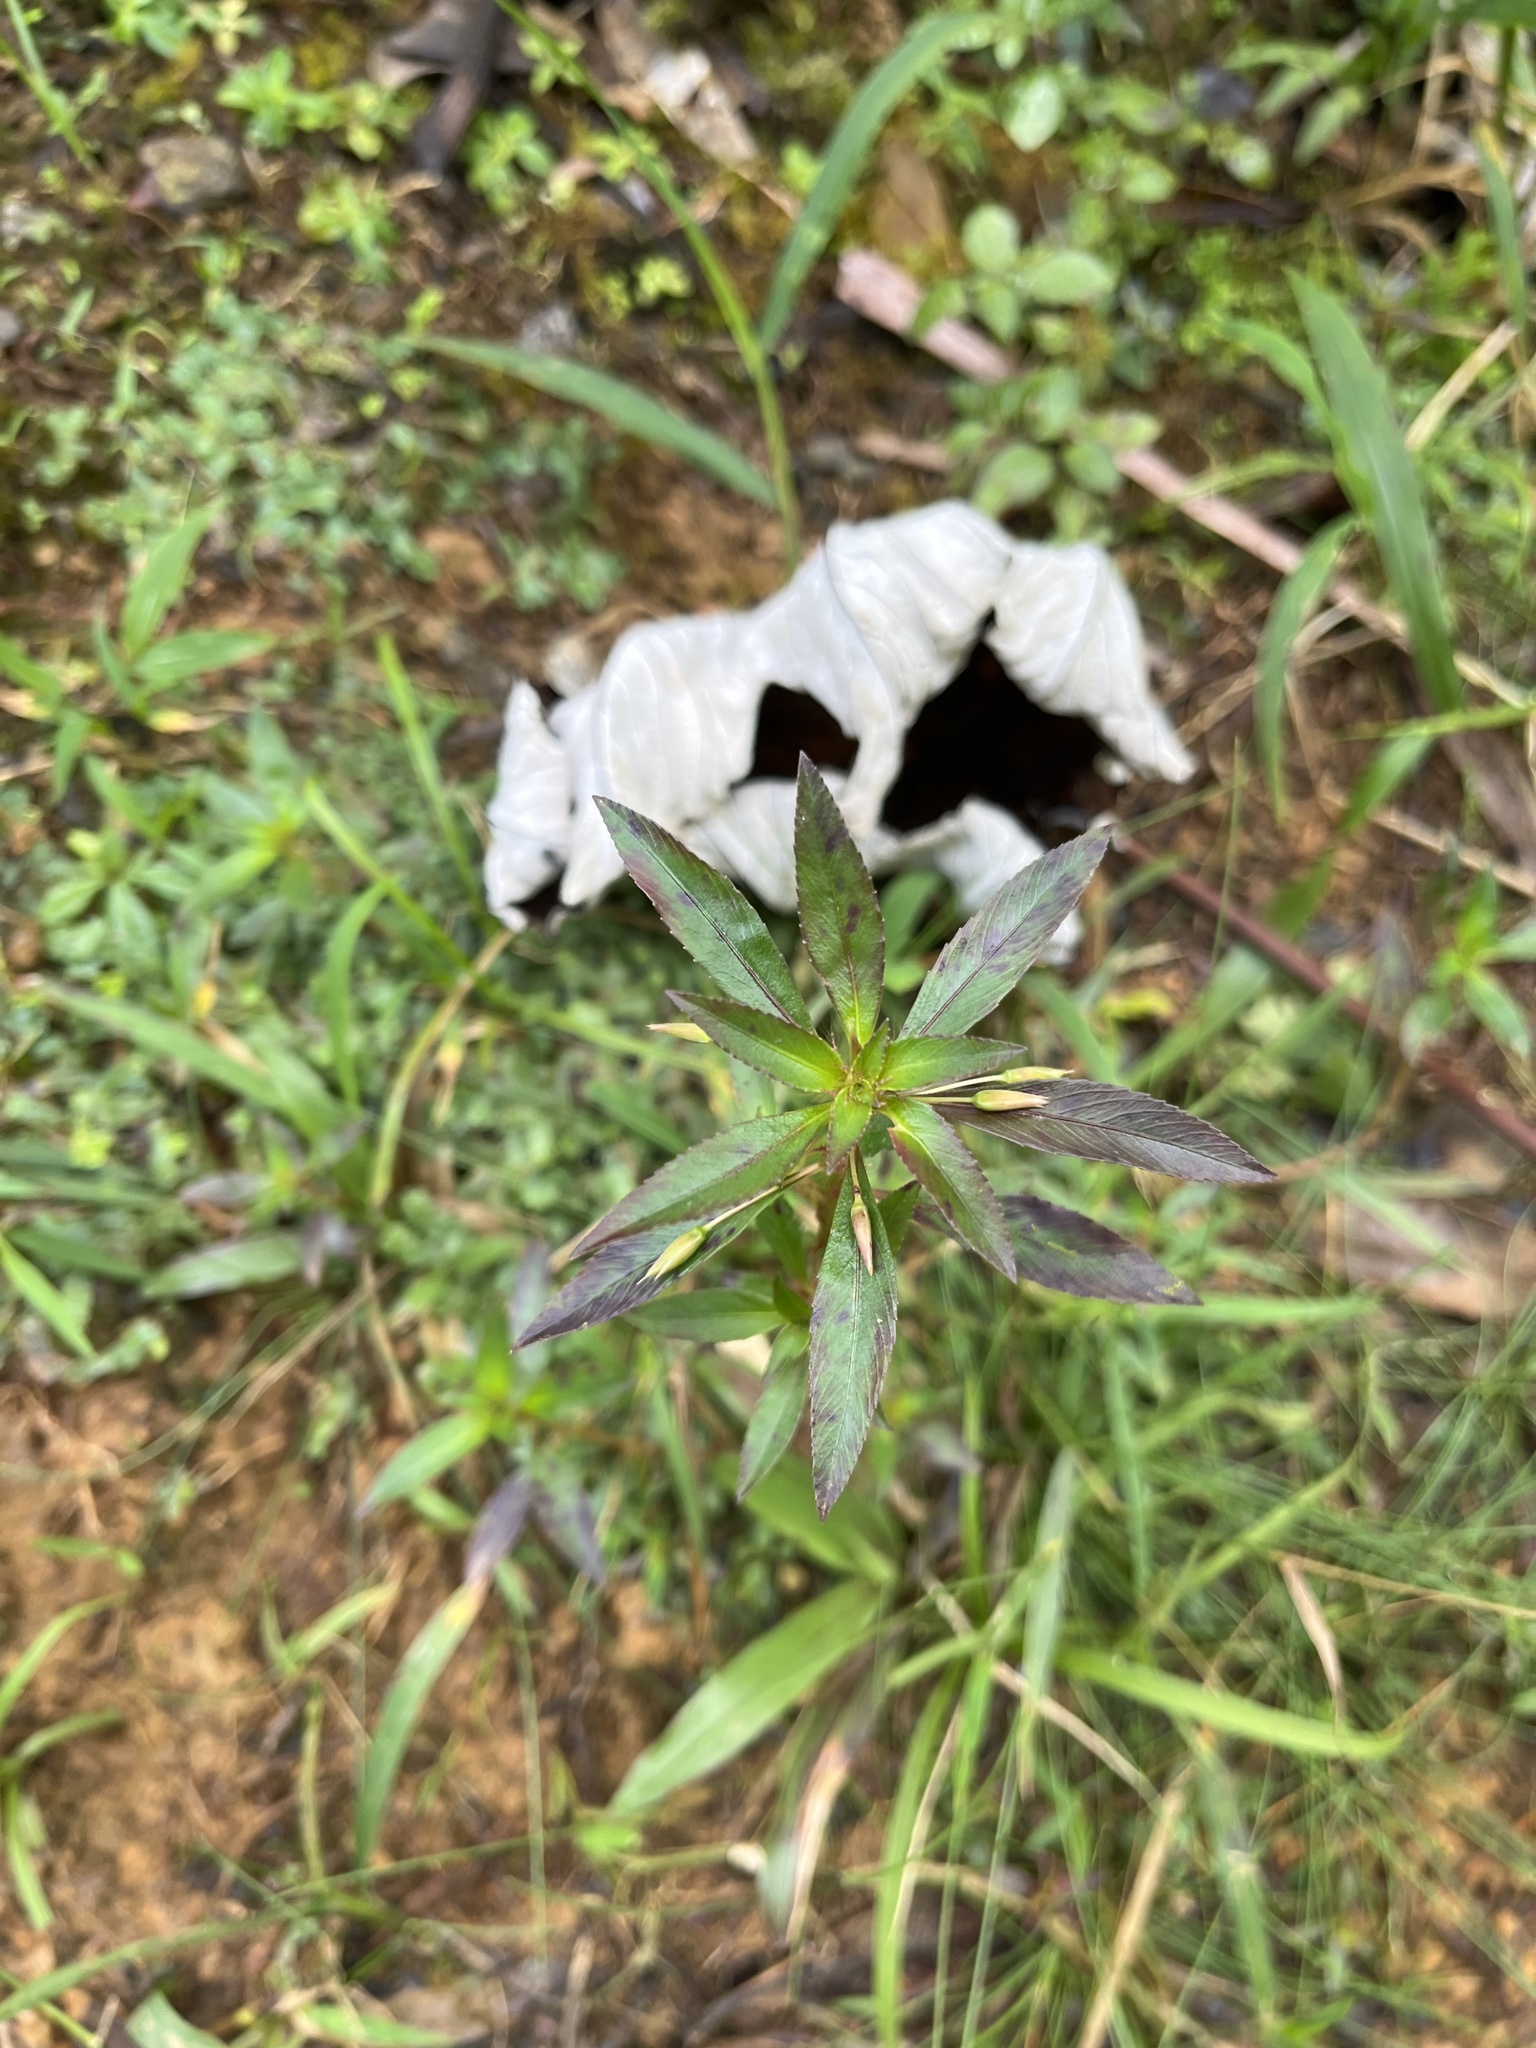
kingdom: Plantae
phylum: Tracheophyta
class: Magnoliopsida
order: Malpighiales
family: Ochnaceae
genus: Sauvagesia
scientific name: Sauvagesia erecta
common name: Creole tea
